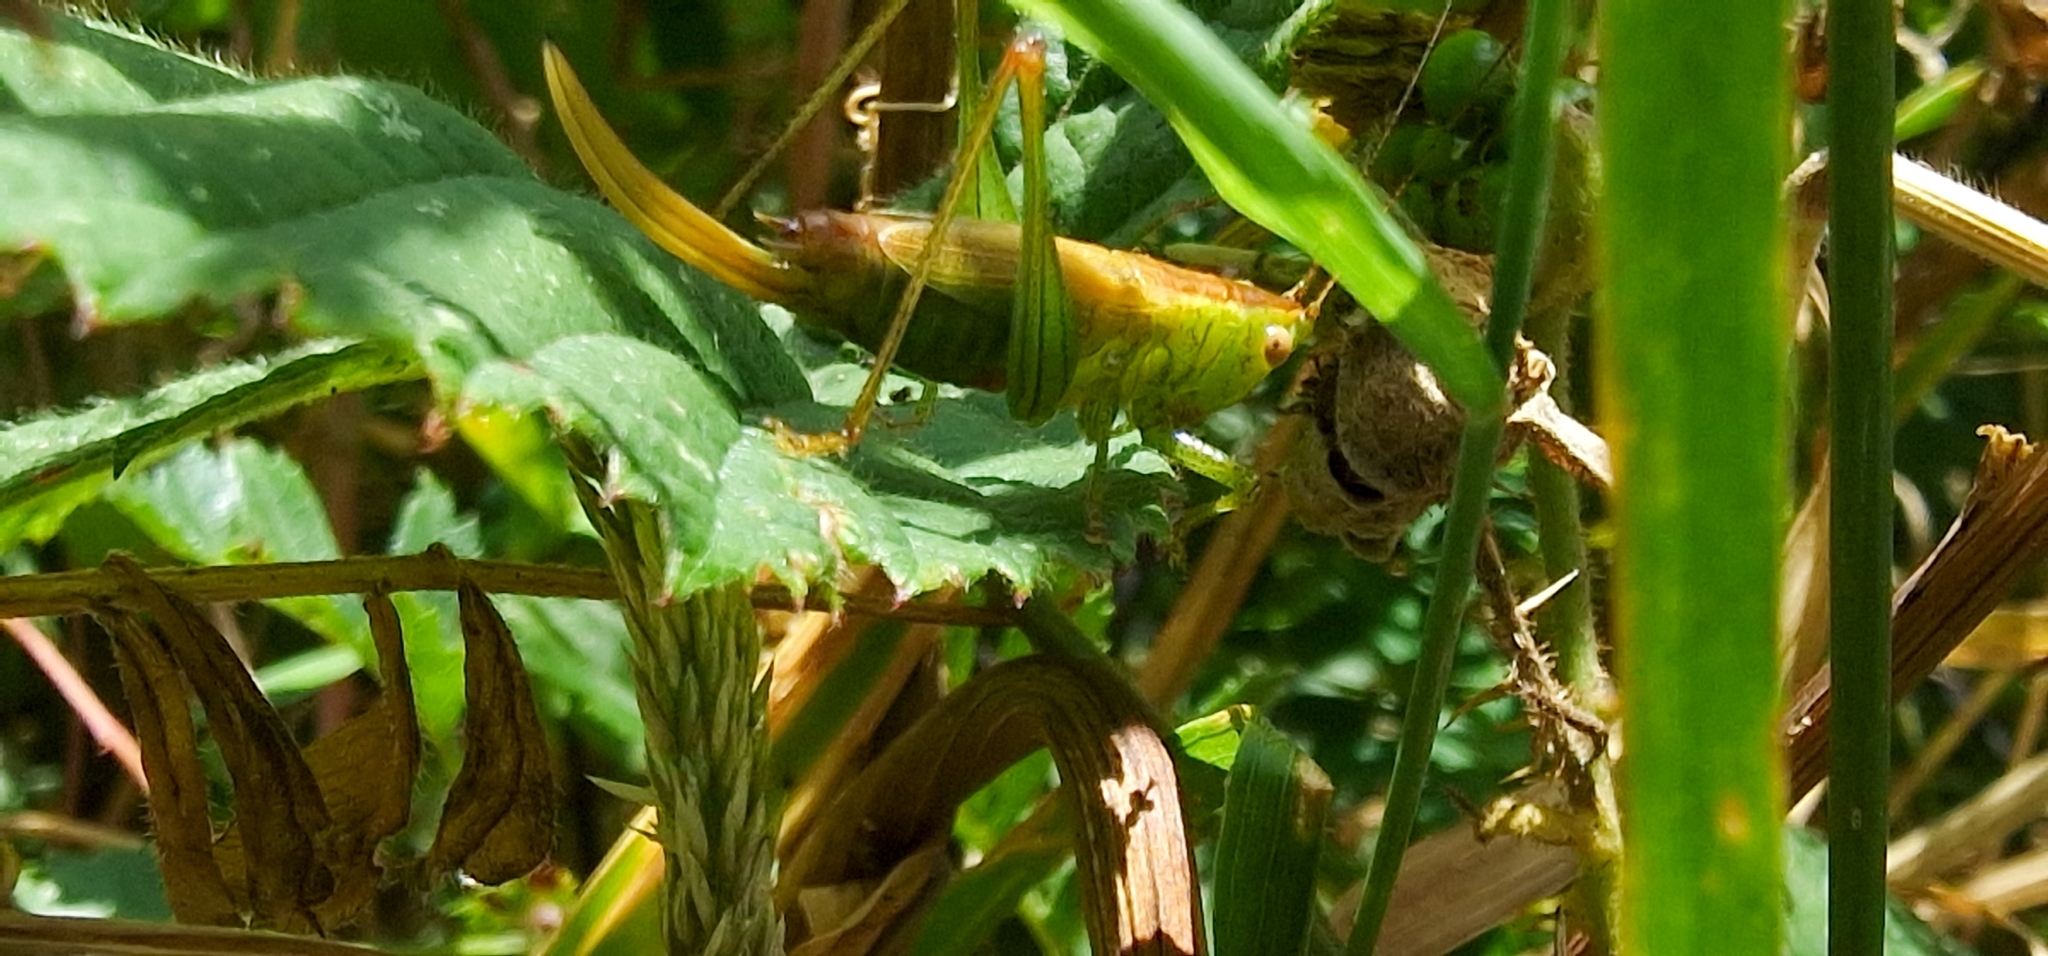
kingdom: Animalia
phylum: Arthropoda
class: Insecta
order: Orthoptera
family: Tettigoniidae
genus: Conocephalus
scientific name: Conocephalus dorsalis
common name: Short-winged conehead
